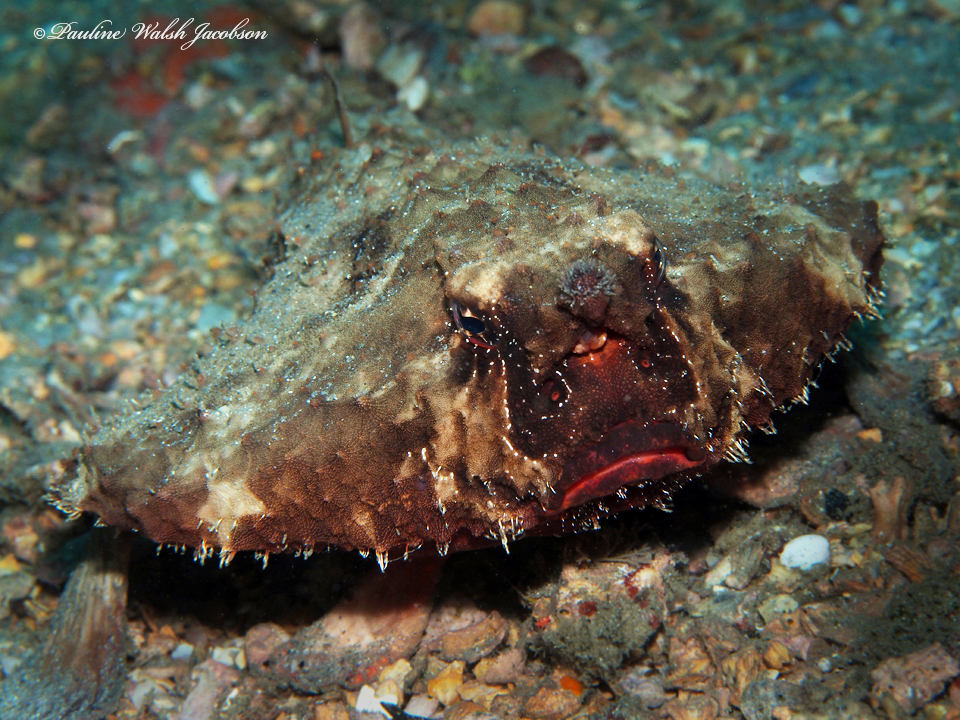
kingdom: Animalia
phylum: Chordata
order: Lophiiformes
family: Ogcocephalidae
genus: Ogcocephalus
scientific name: Ogcocephalus nasutus
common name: Shortnose batfish
